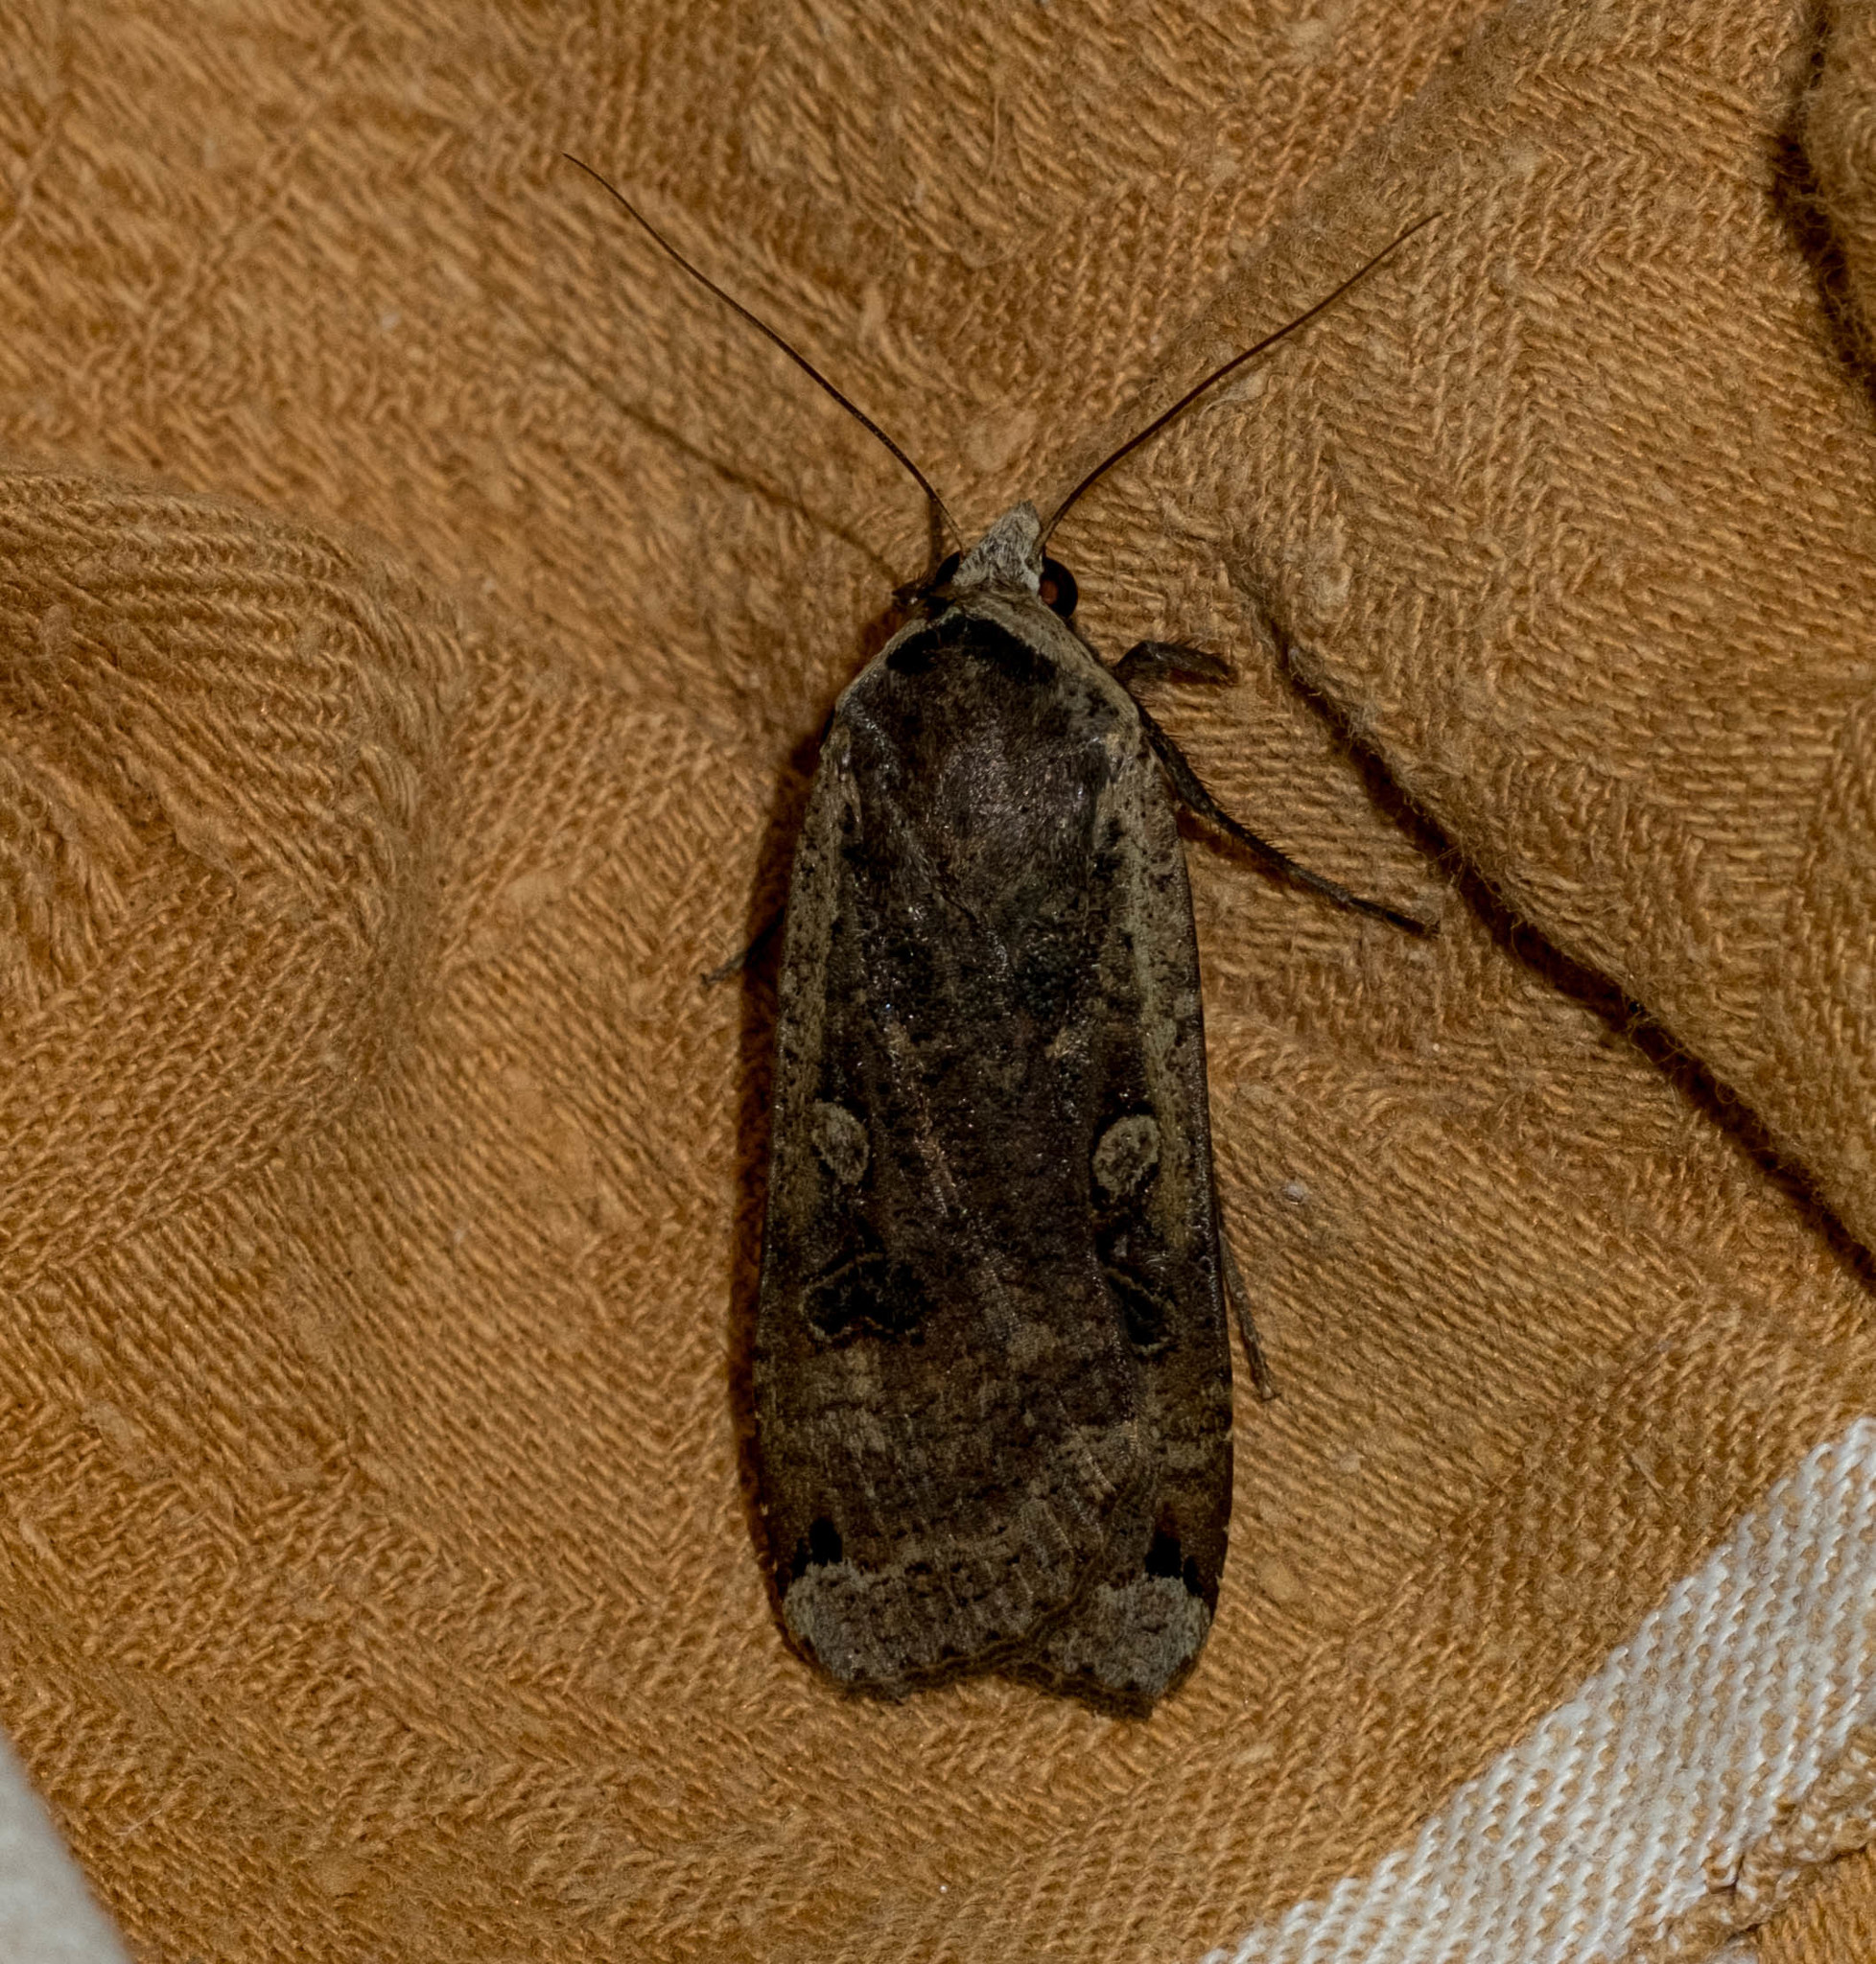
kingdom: Animalia
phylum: Arthropoda
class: Insecta
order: Lepidoptera
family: Noctuidae
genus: Noctua
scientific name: Noctua pronuba
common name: Large yellow underwing
